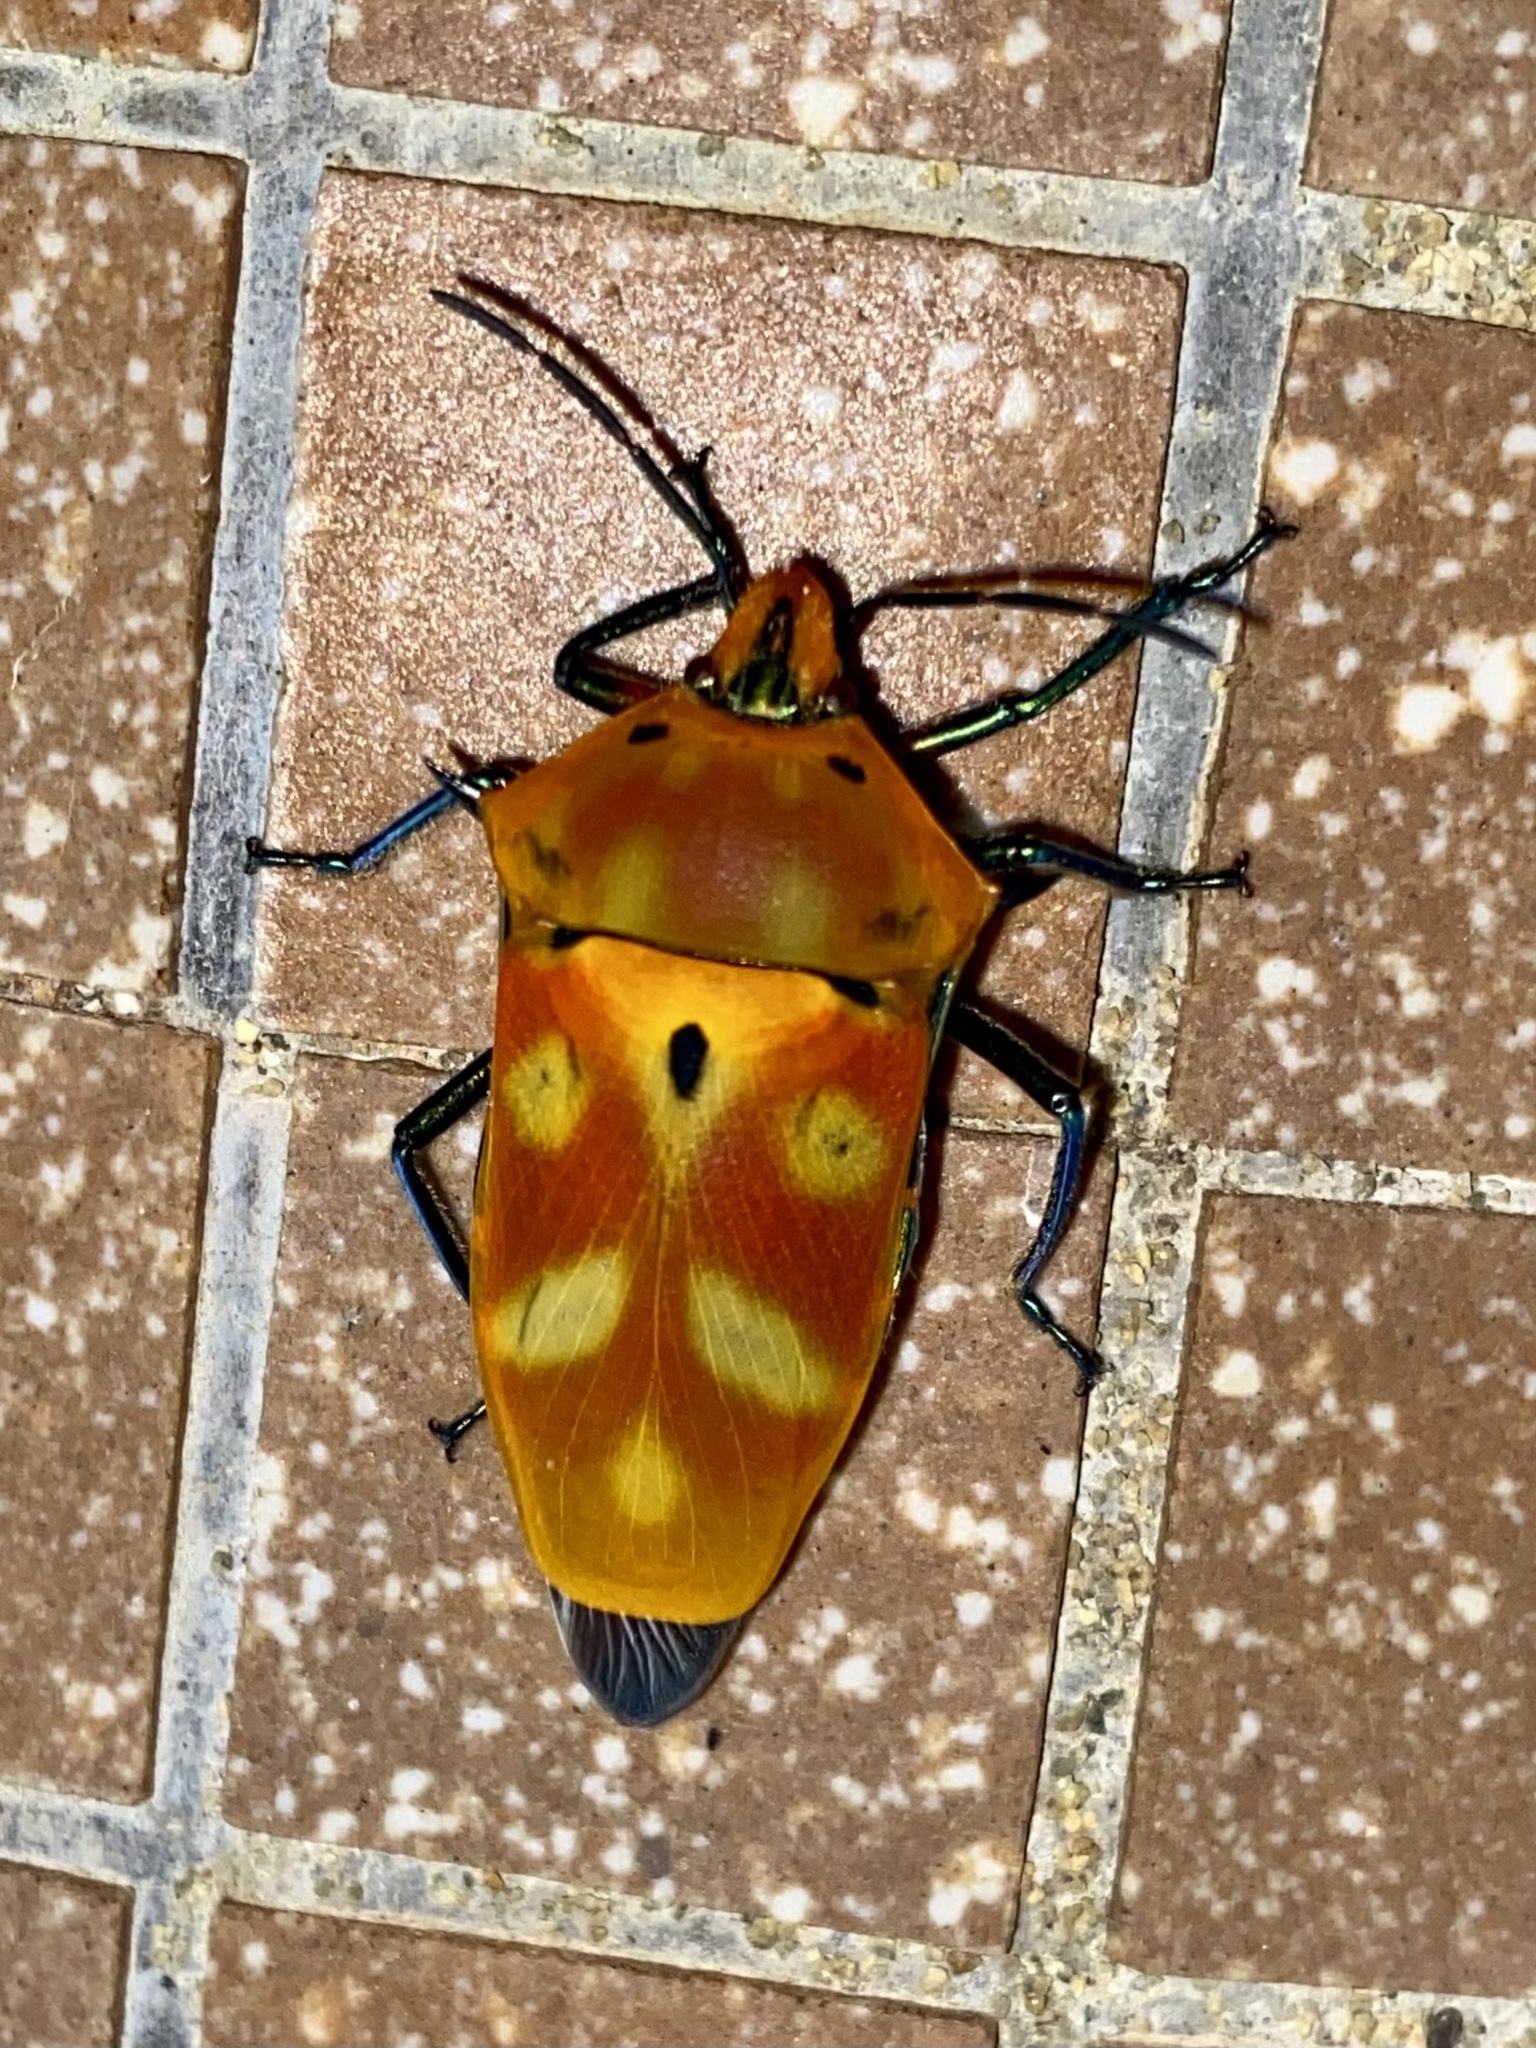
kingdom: Animalia
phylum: Arthropoda
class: Insecta
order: Hemiptera
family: Scutelleridae
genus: Cantao
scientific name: Cantao ocellatus
